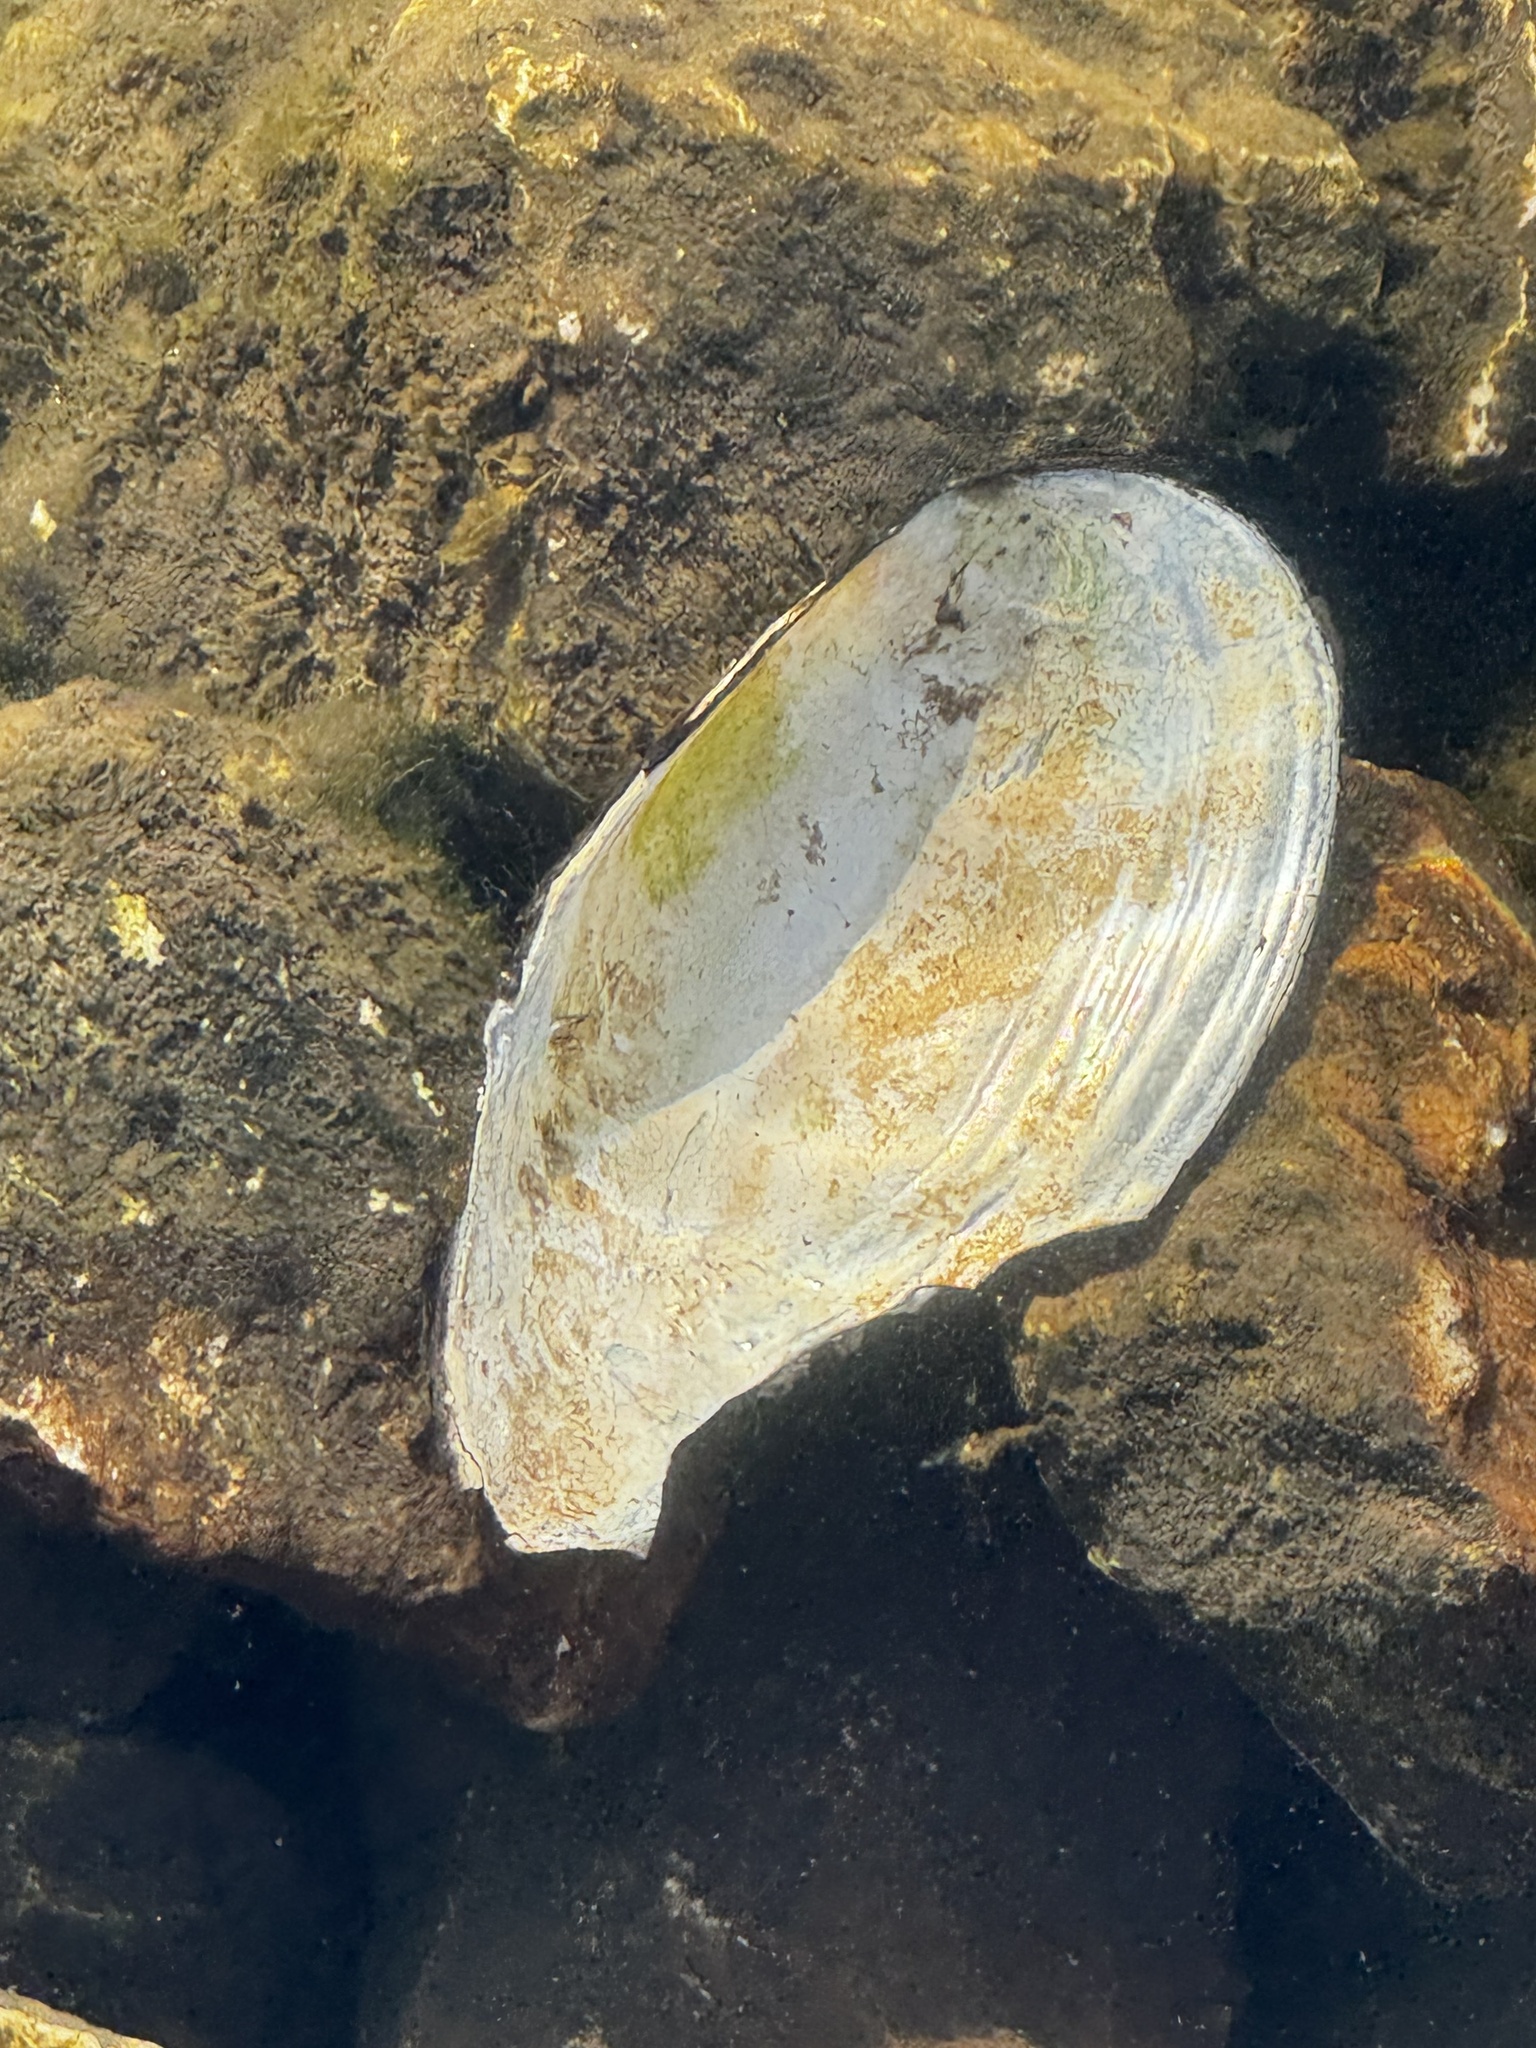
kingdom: Animalia
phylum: Mollusca
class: Bivalvia
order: Unionida
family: Unionidae
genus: Utterbackia
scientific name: Utterbackia imbecillis
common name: Paper pondshell
